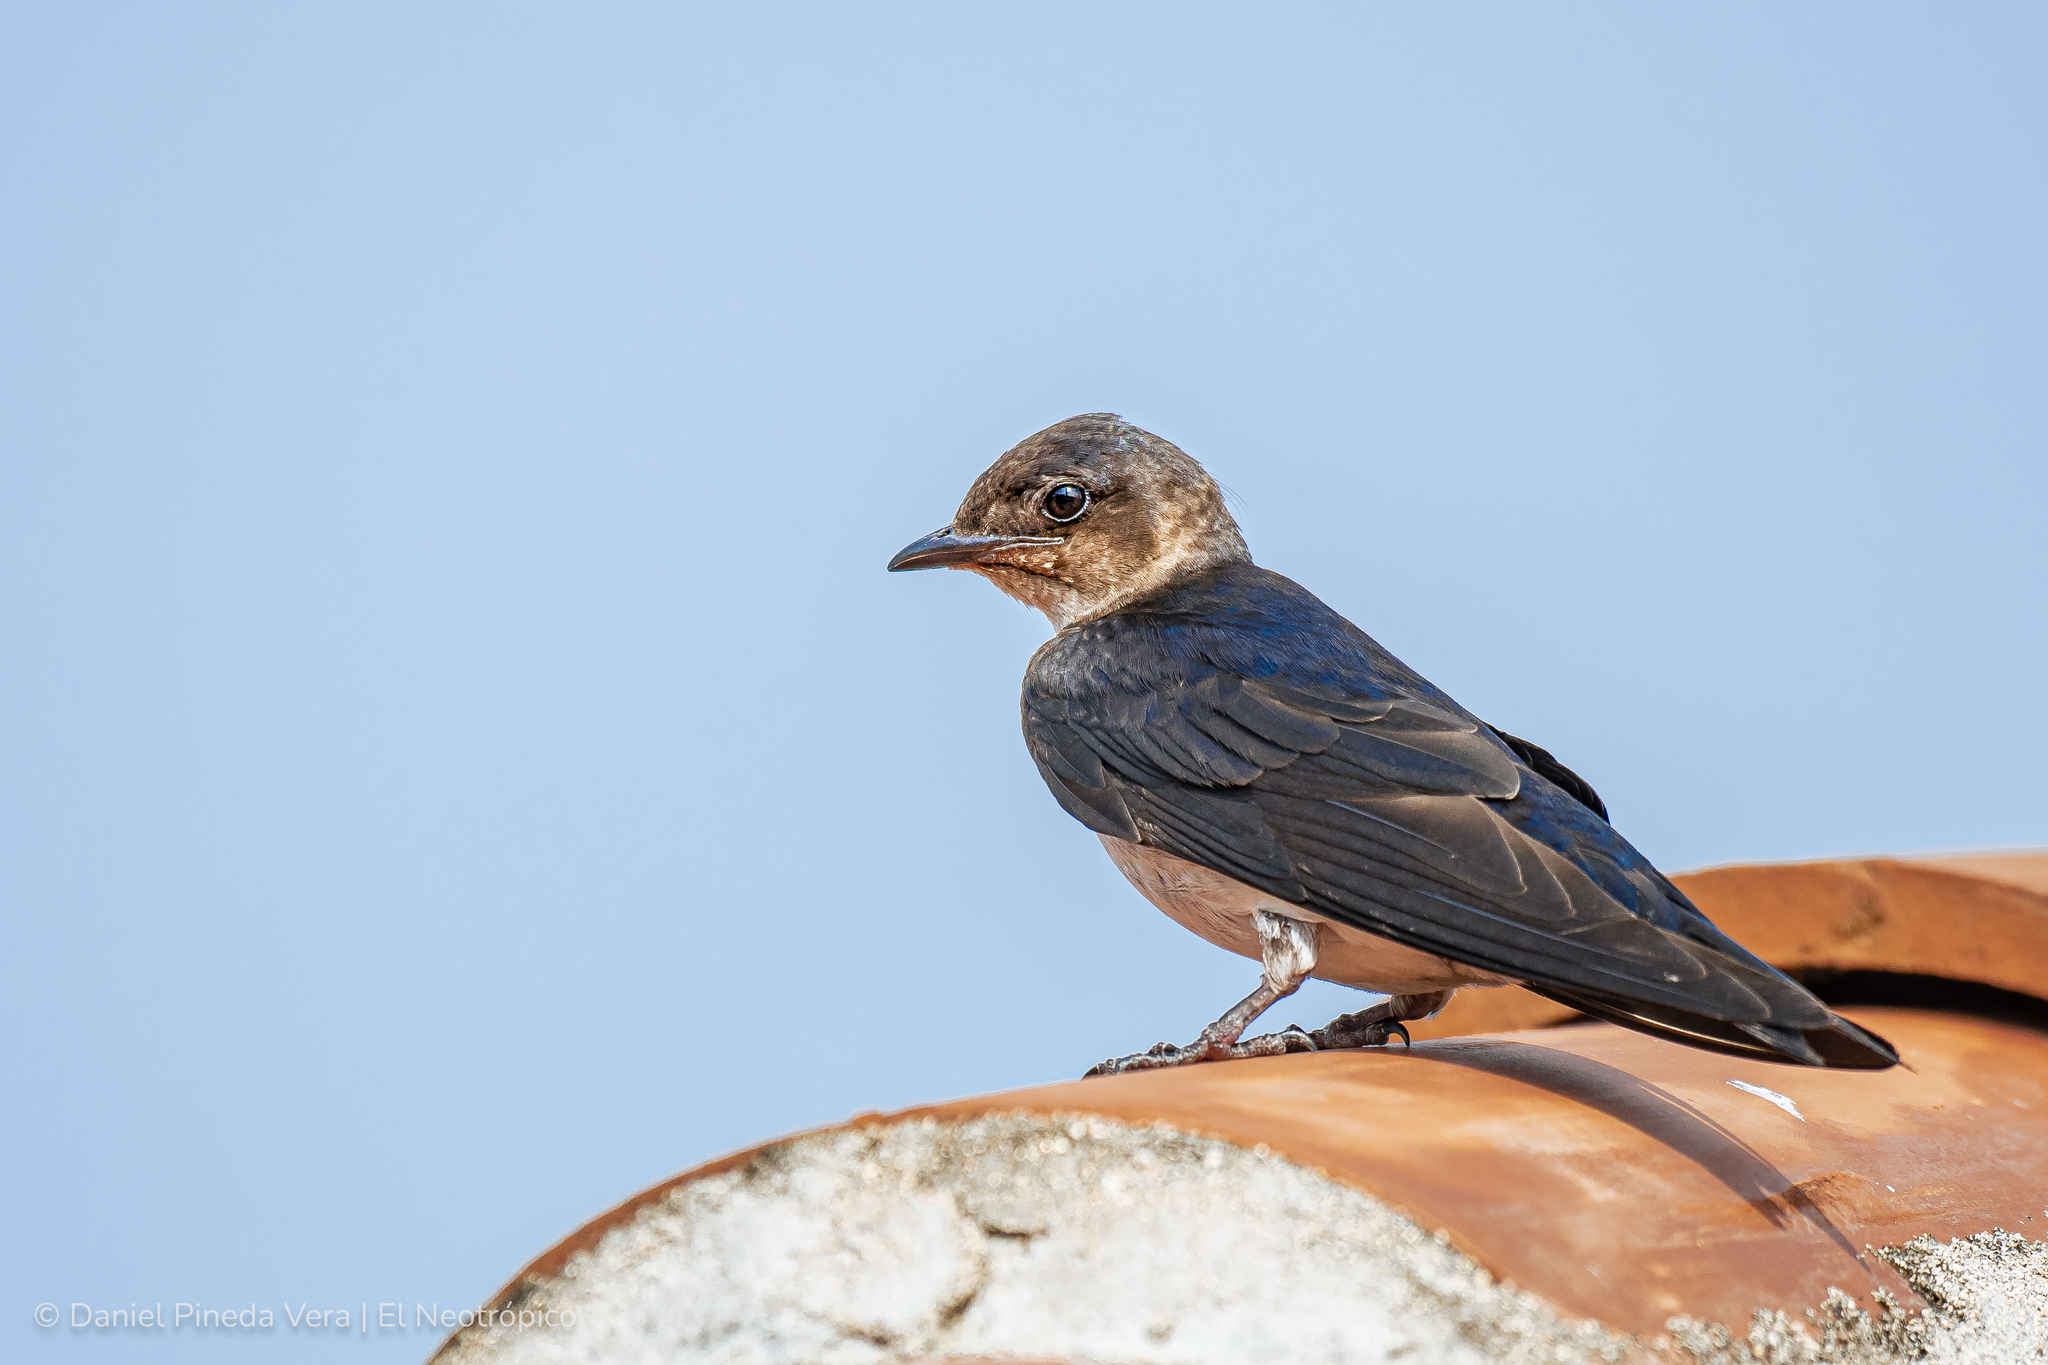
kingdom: Animalia
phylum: Chordata
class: Aves
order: Passeriformes
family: Hirundinidae
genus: Progne
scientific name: Progne chalybea
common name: Grey-breasted martin
